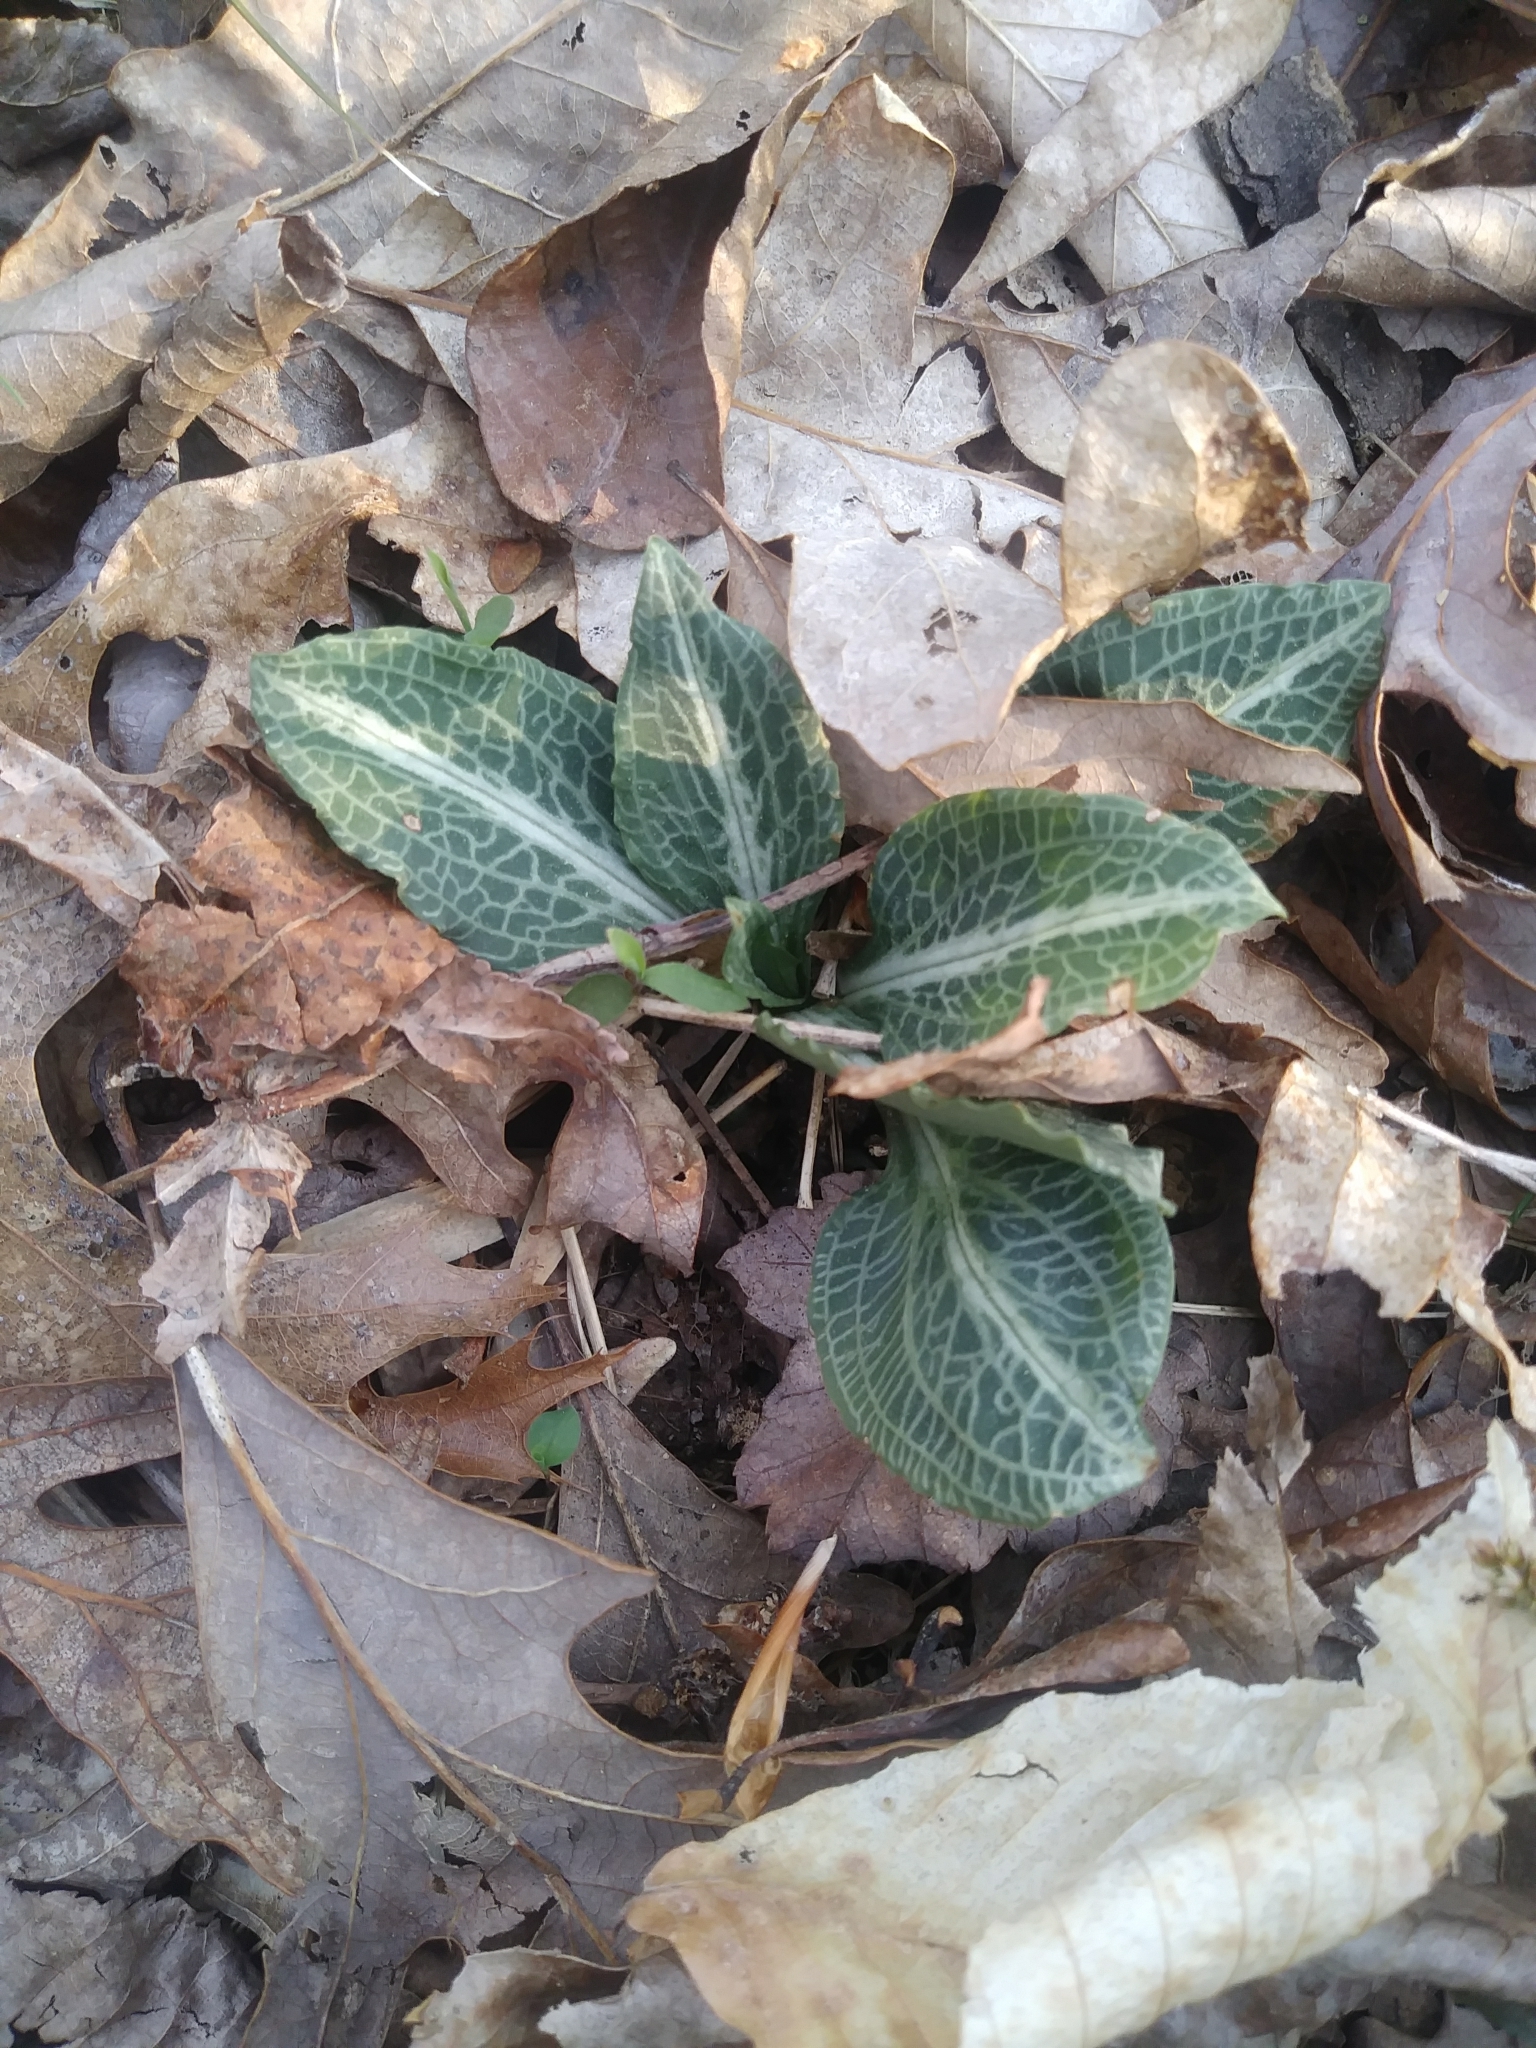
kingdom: Plantae
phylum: Tracheophyta
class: Liliopsida
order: Asparagales
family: Orchidaceae
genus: Goodyera
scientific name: Goodyera pubescens
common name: Downy rattlesnake-plantain
